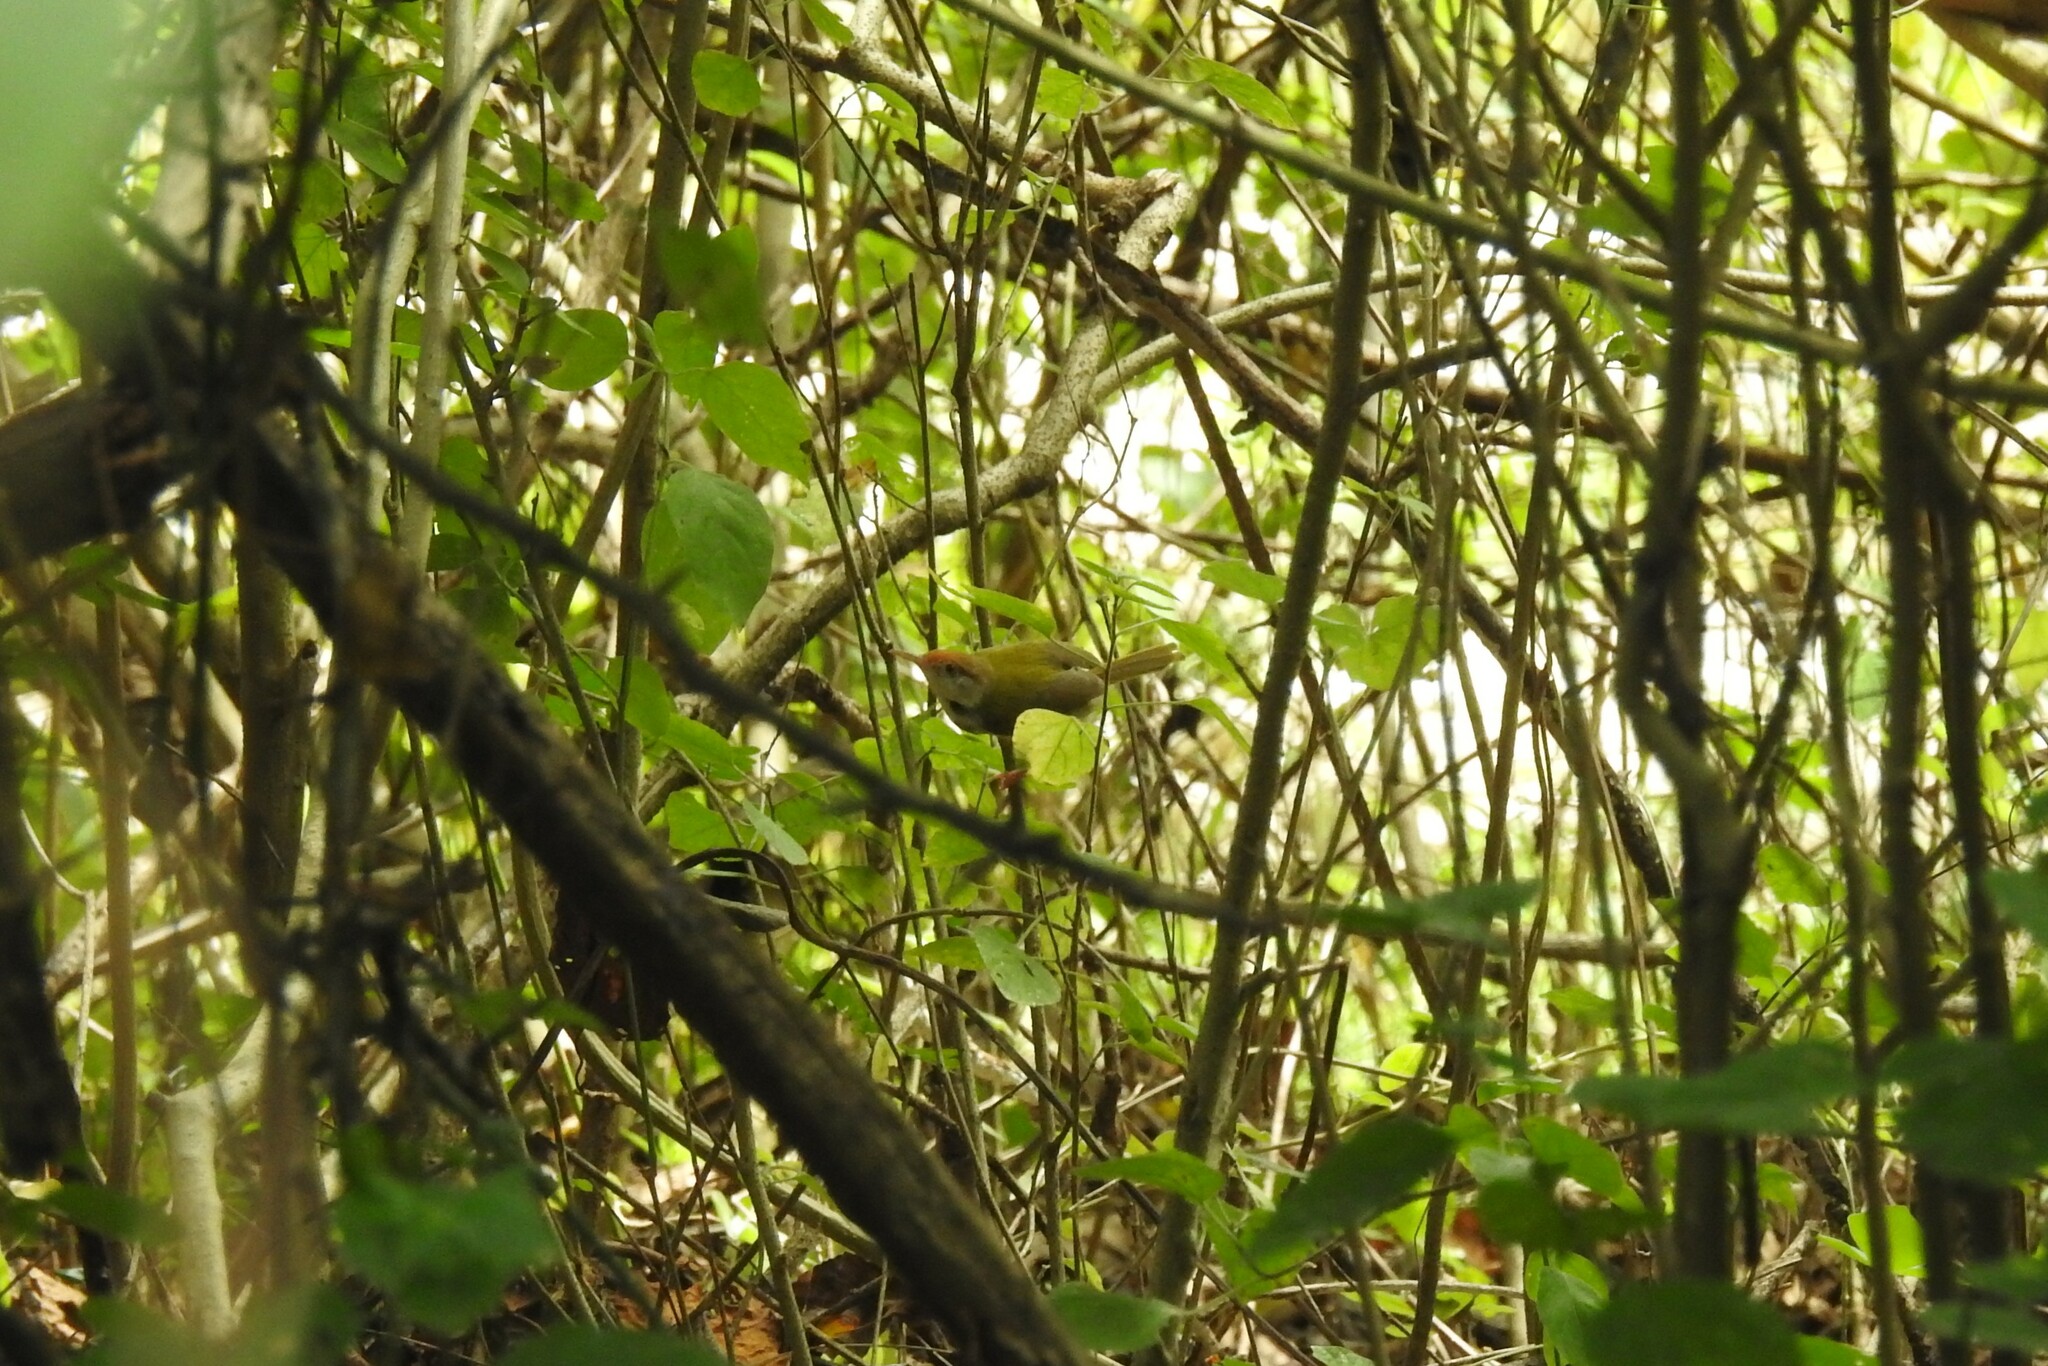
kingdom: Animalia
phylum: Chordata
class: Aves
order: Passeriformes
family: Cisticolidae
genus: Orthotomus
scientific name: Orthotomus sutorius
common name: Common tailorbird
